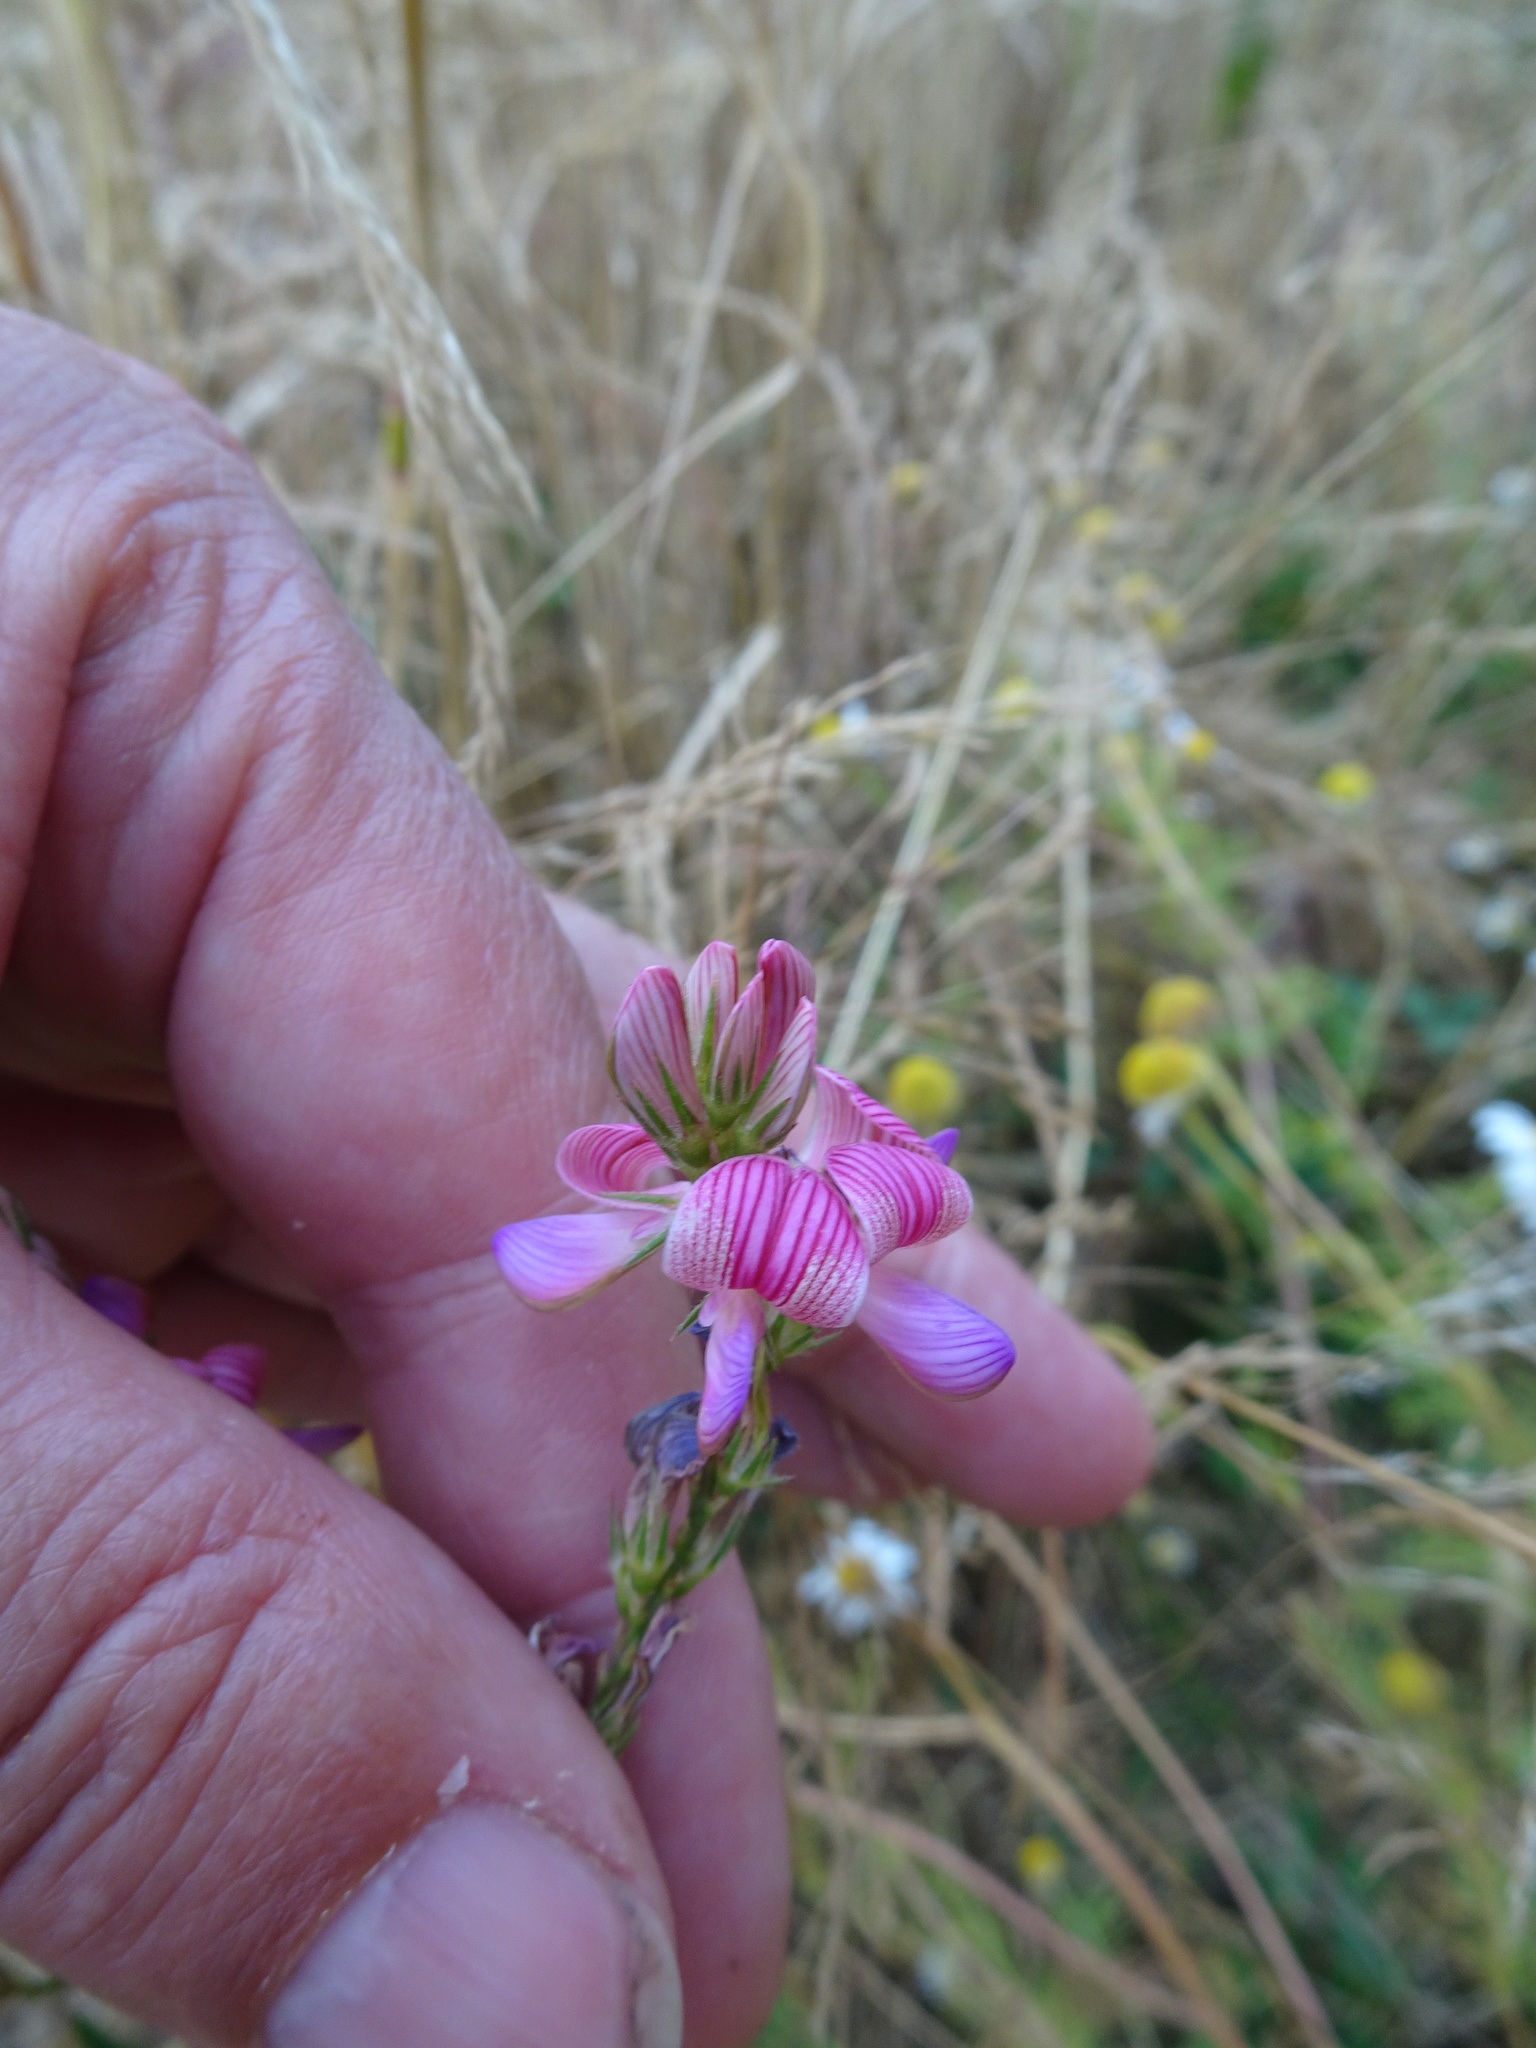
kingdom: Plantae
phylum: Tracheophyta
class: Magnoliopsida
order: Fabales
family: Fabaceae
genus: Onobrychis
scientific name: Onobrychis viciifolia
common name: Sainfoin
